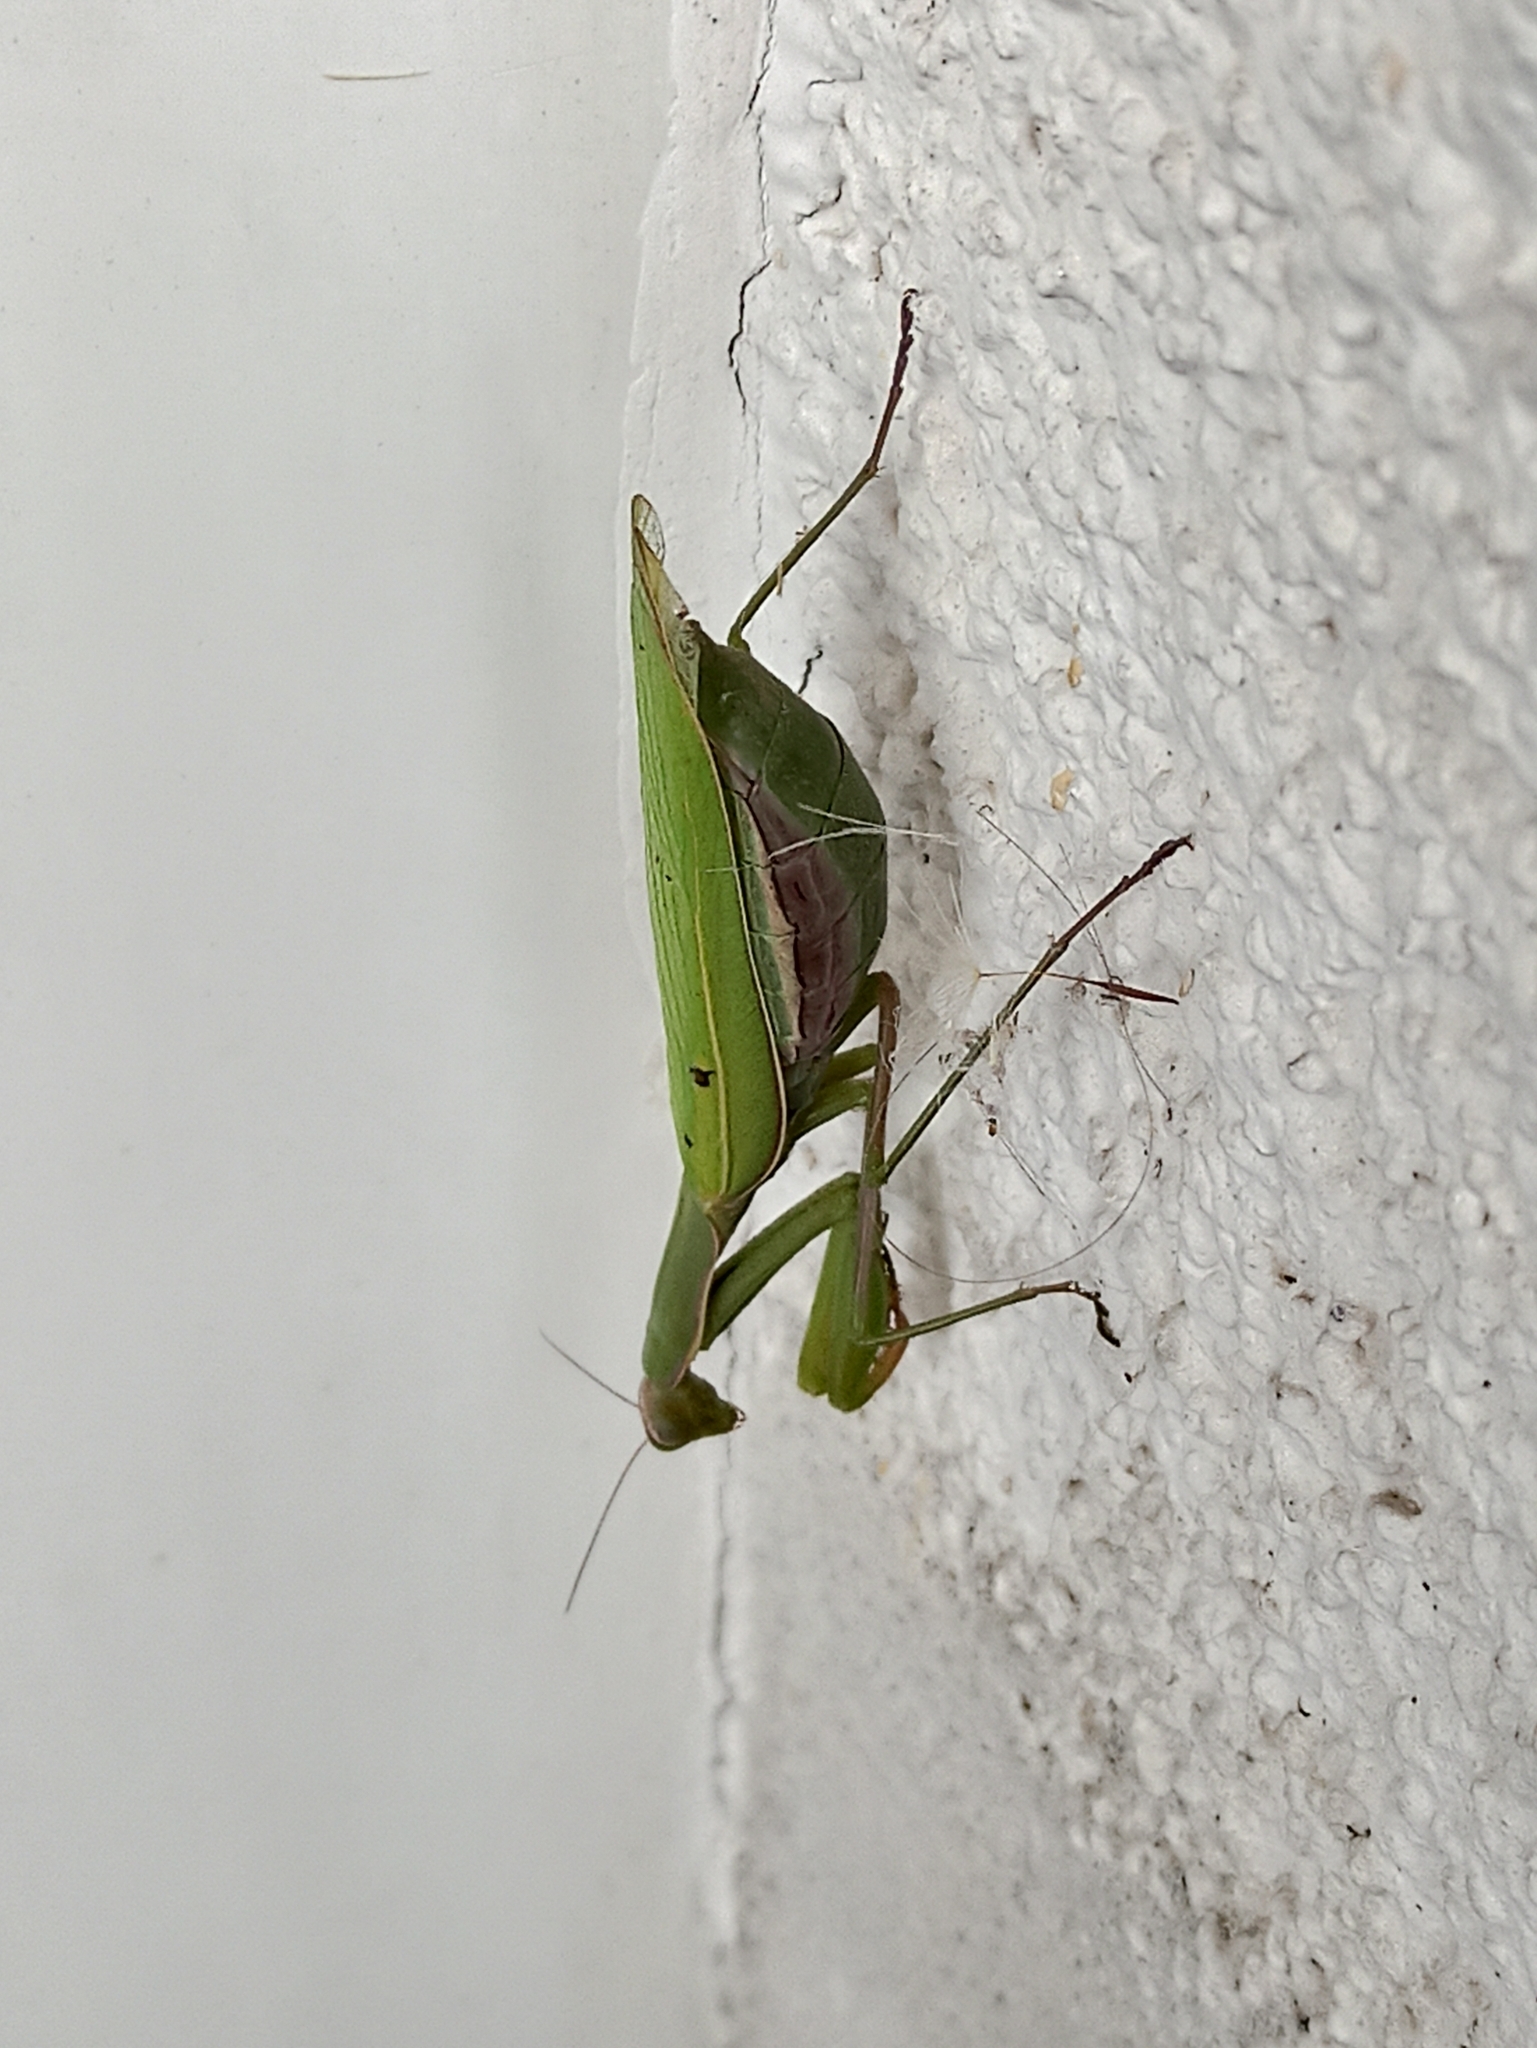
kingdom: Animalia
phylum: Arthropoda
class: Insecta
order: Mantodea
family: Mantidae
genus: Mantis
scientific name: Mantis religiosa
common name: Praying mantis
